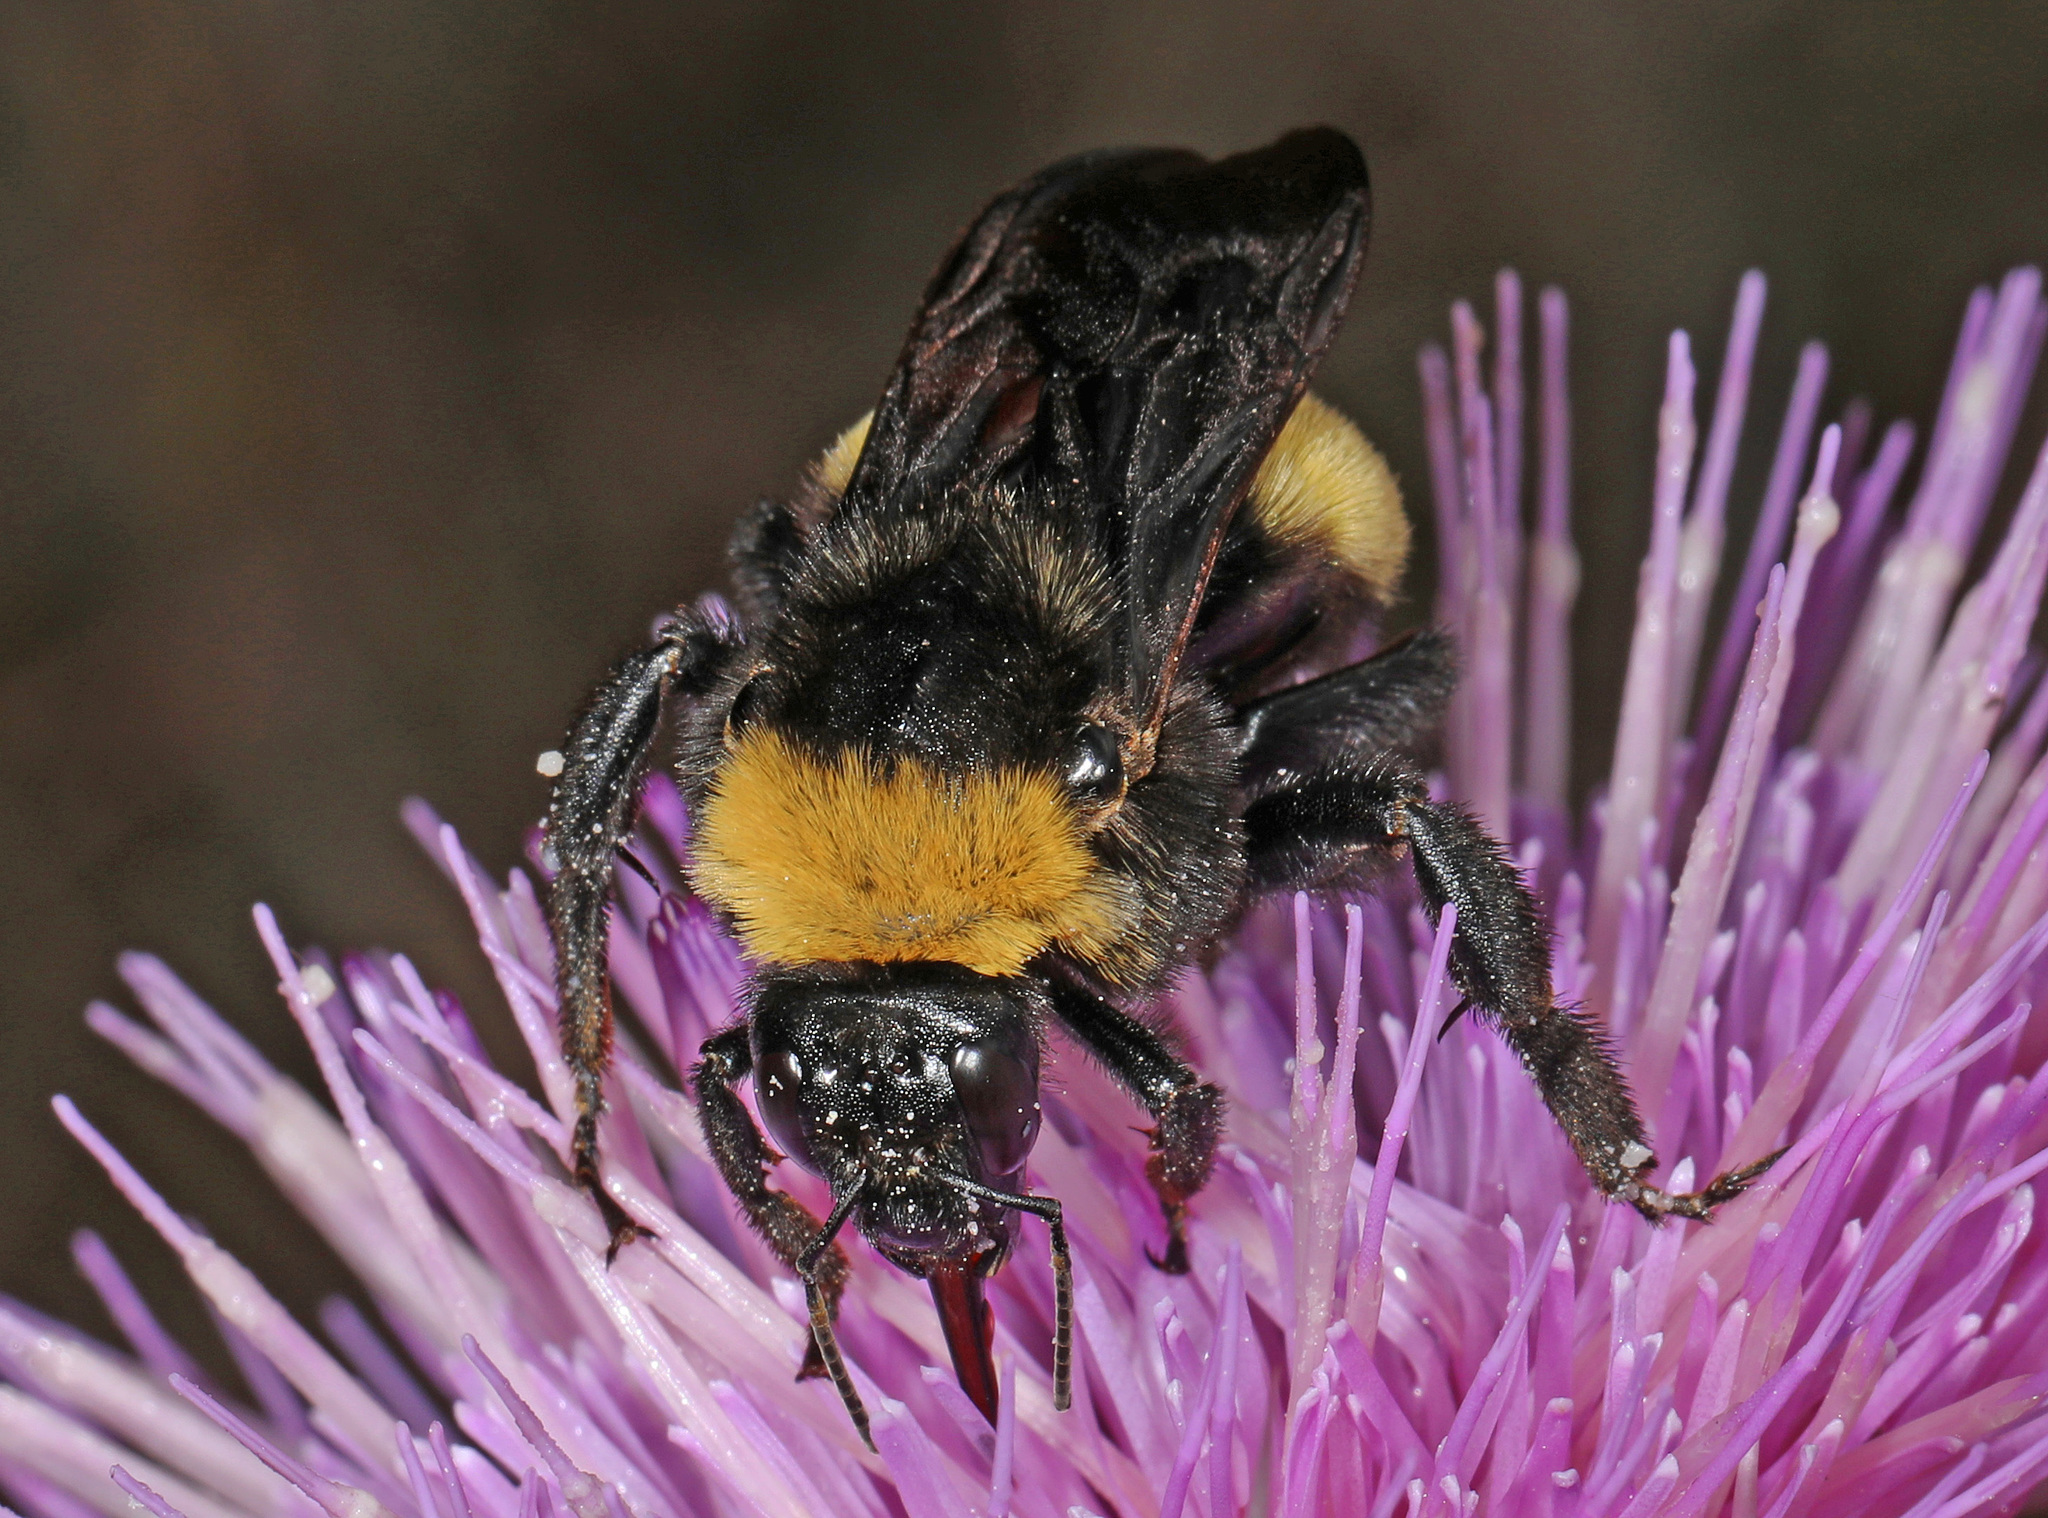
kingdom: Animalia
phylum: Arthropoda
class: Insecta
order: Hymenoptera
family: Apidae
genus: Bombus
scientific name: Bombus pensylvanicus
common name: Bumble bee
